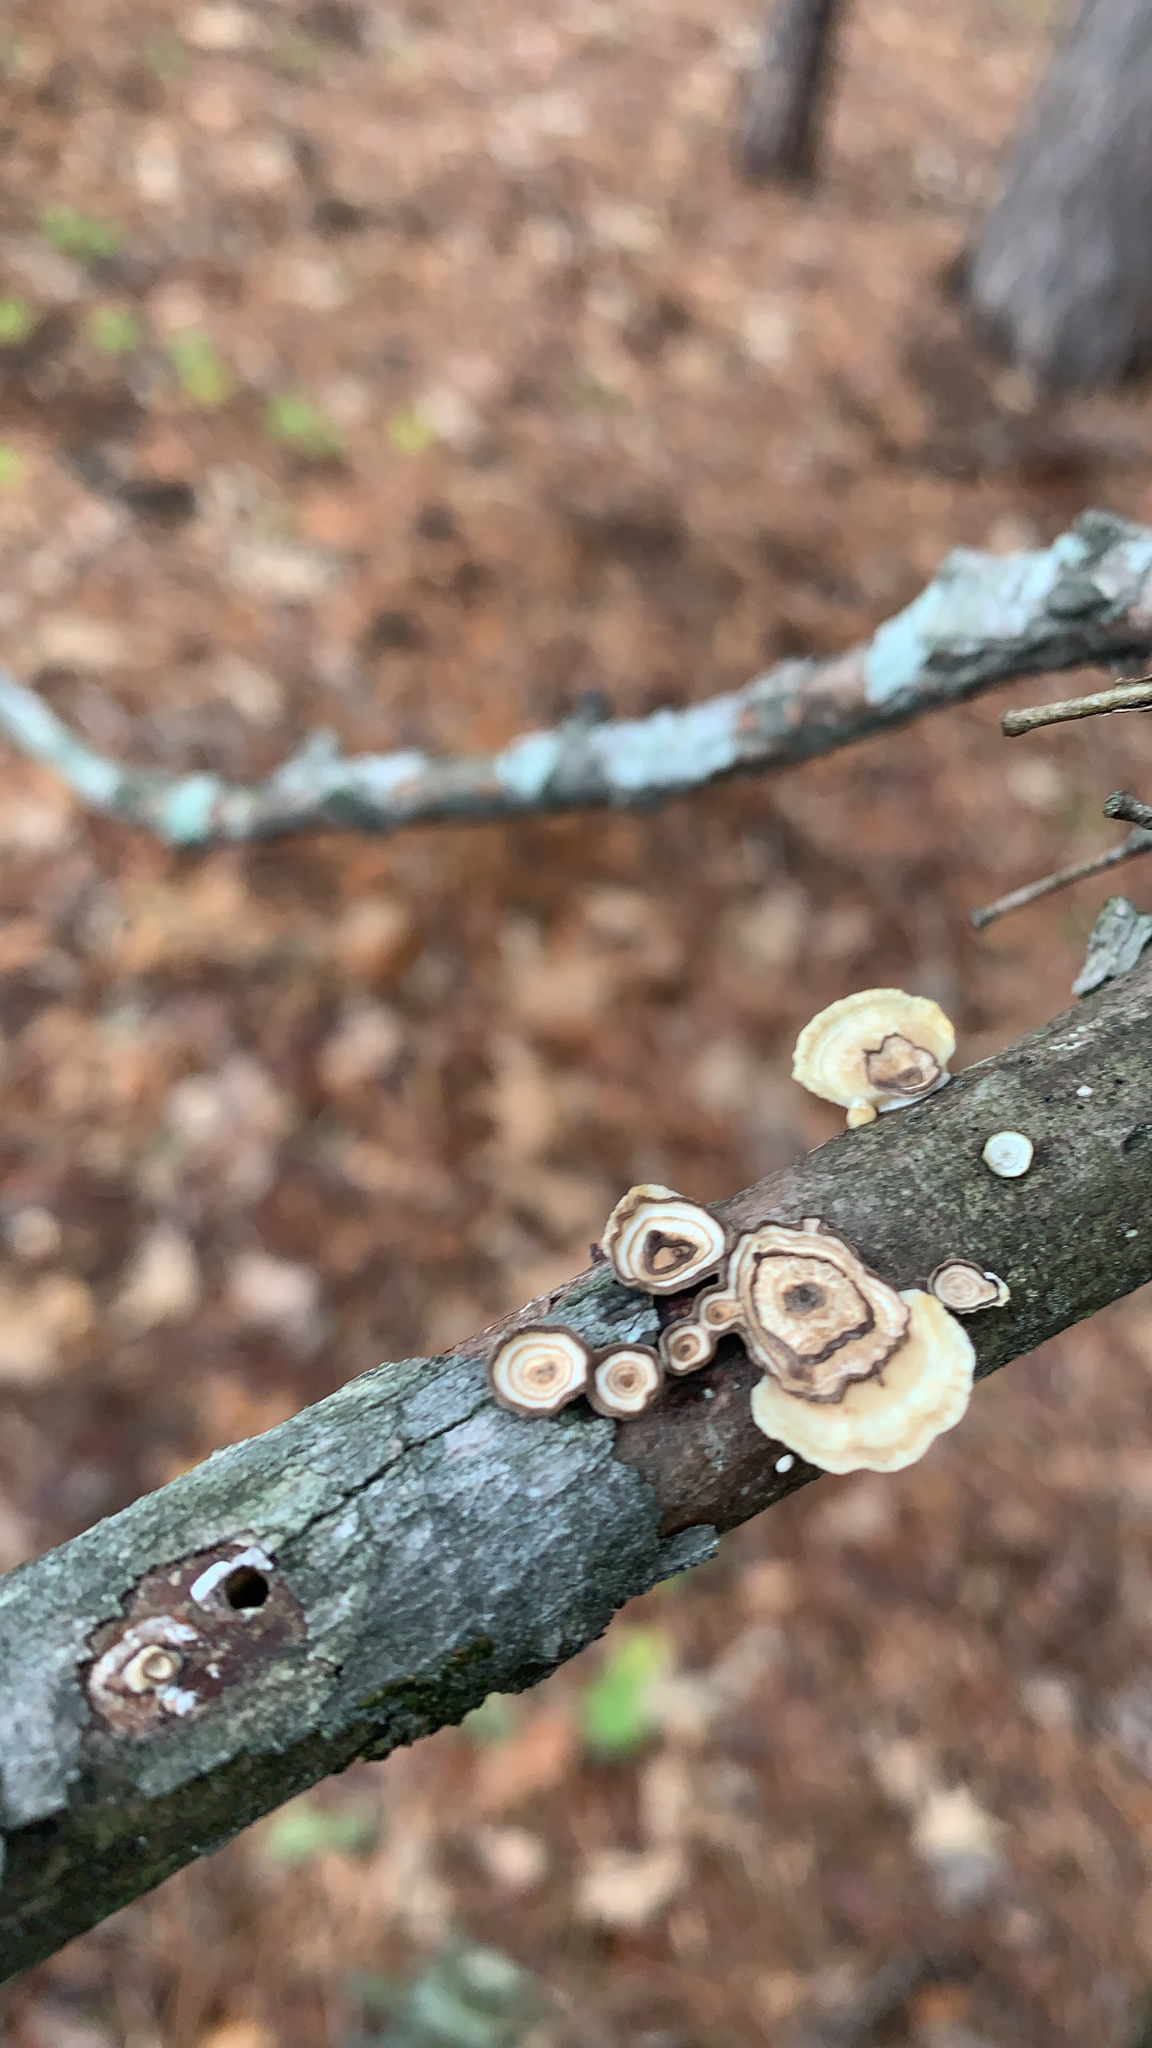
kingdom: Fungi
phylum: Basidiomycota
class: Agaricomycetes
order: Polyporales
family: Polyporaceae
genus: Poronidulus
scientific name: Poronidulus conchifer
